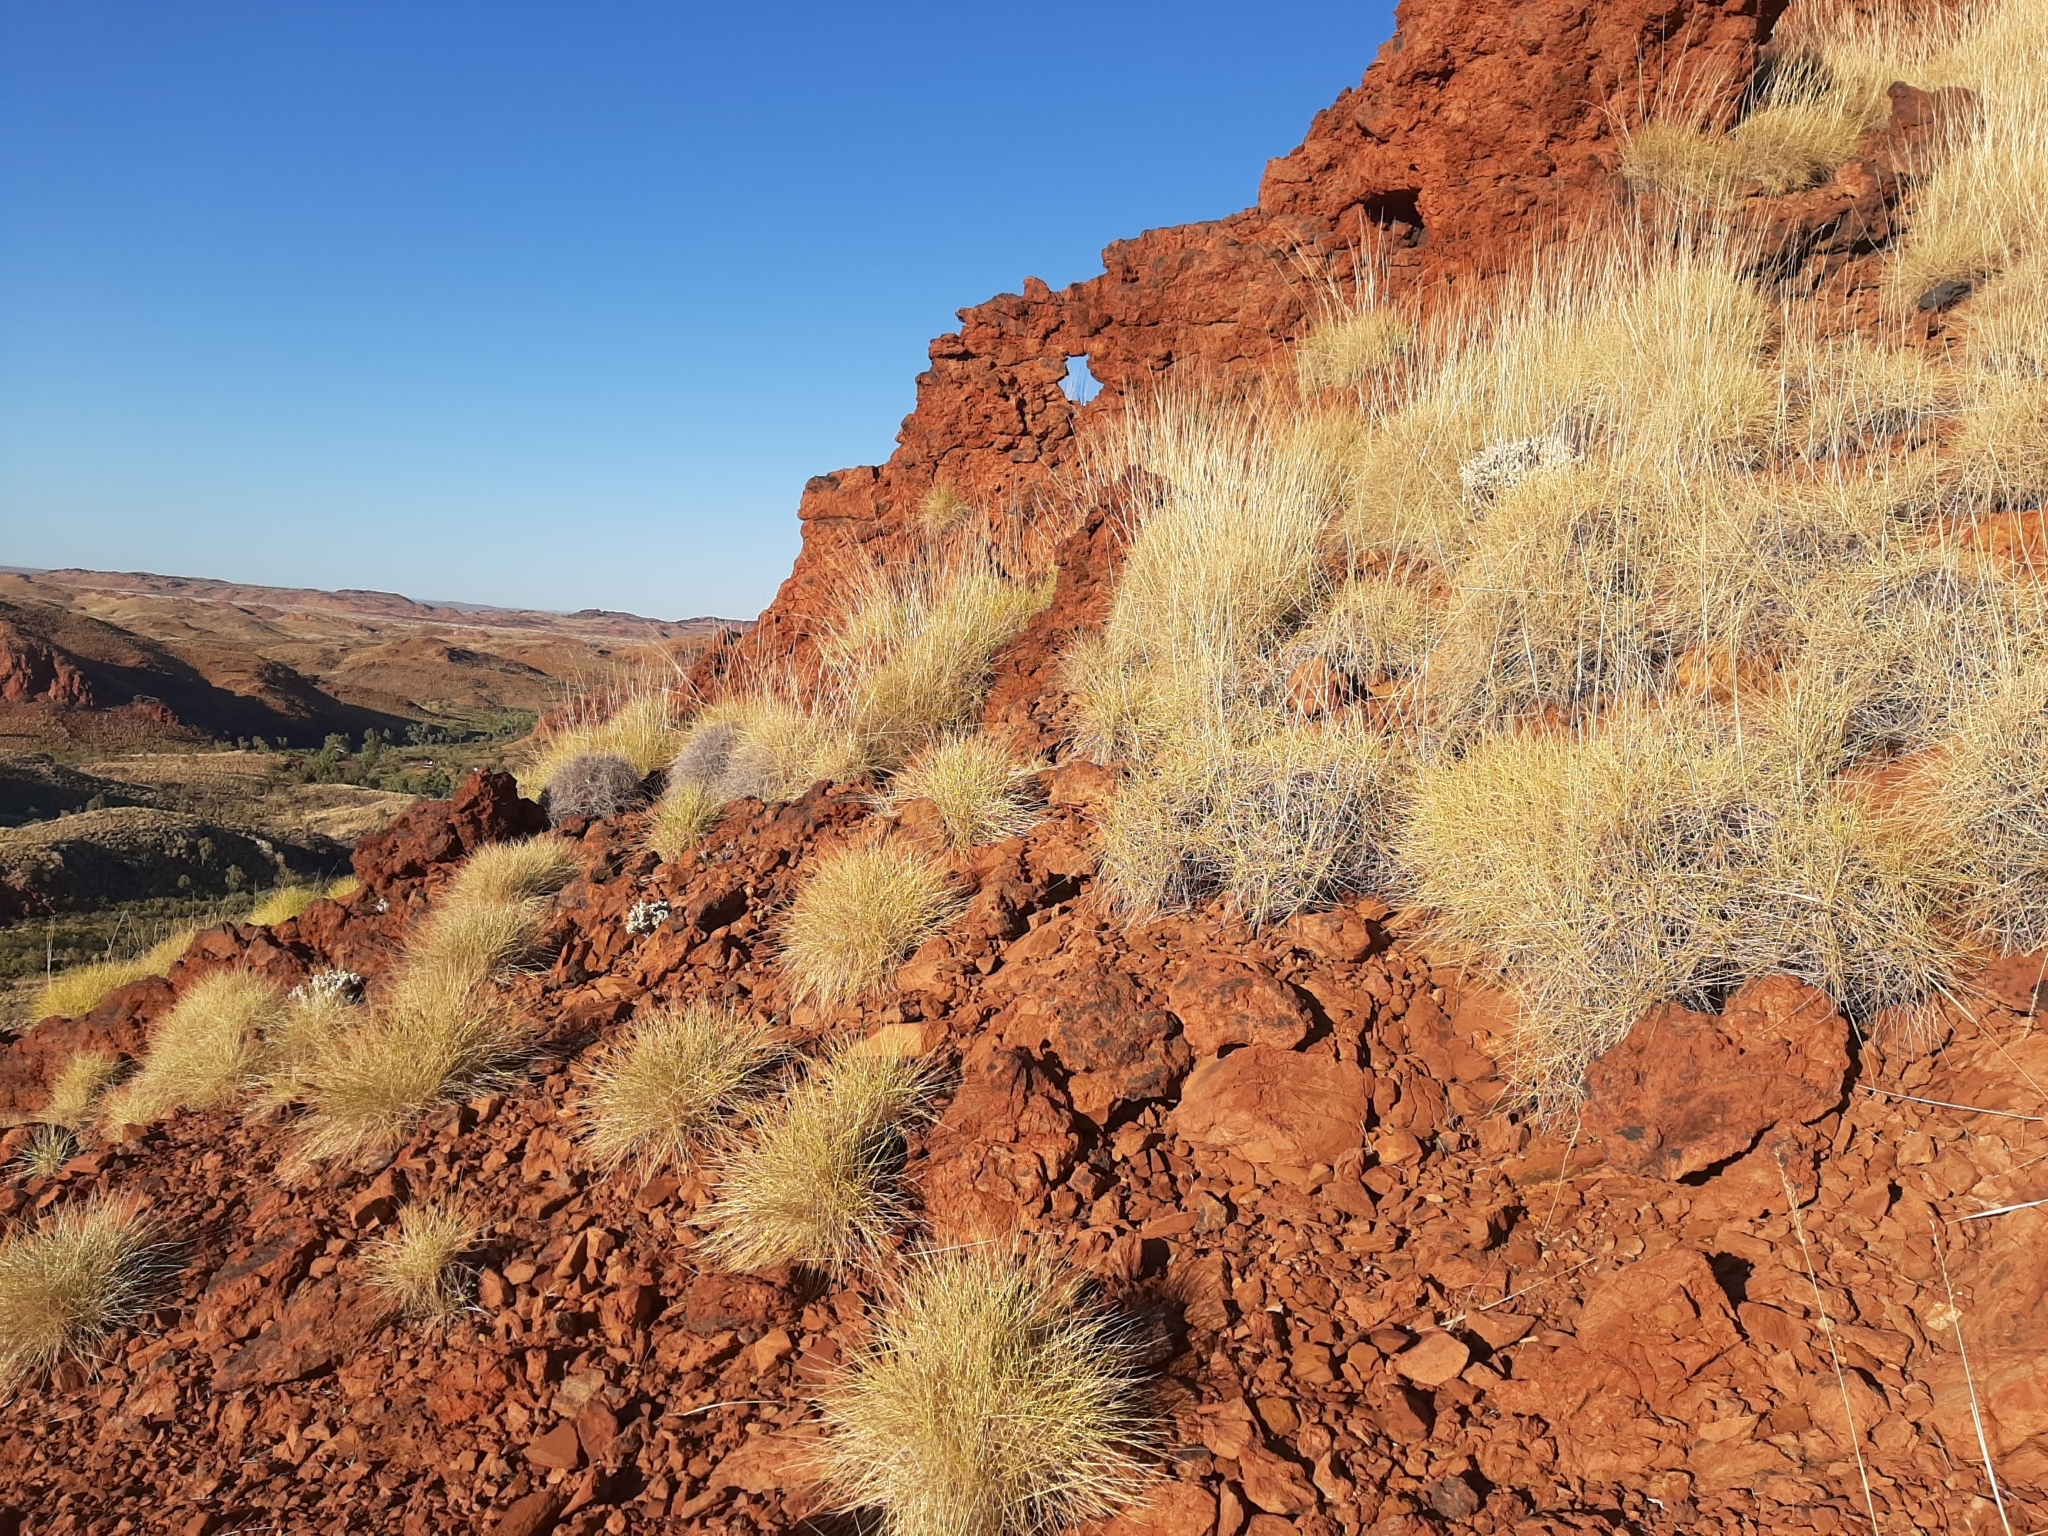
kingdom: Plantae
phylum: Tracheophyta
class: Magnoliopsida
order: Caryophyllales
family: Amaranthaceae
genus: Ptilotus
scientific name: Ptilotus mollis
